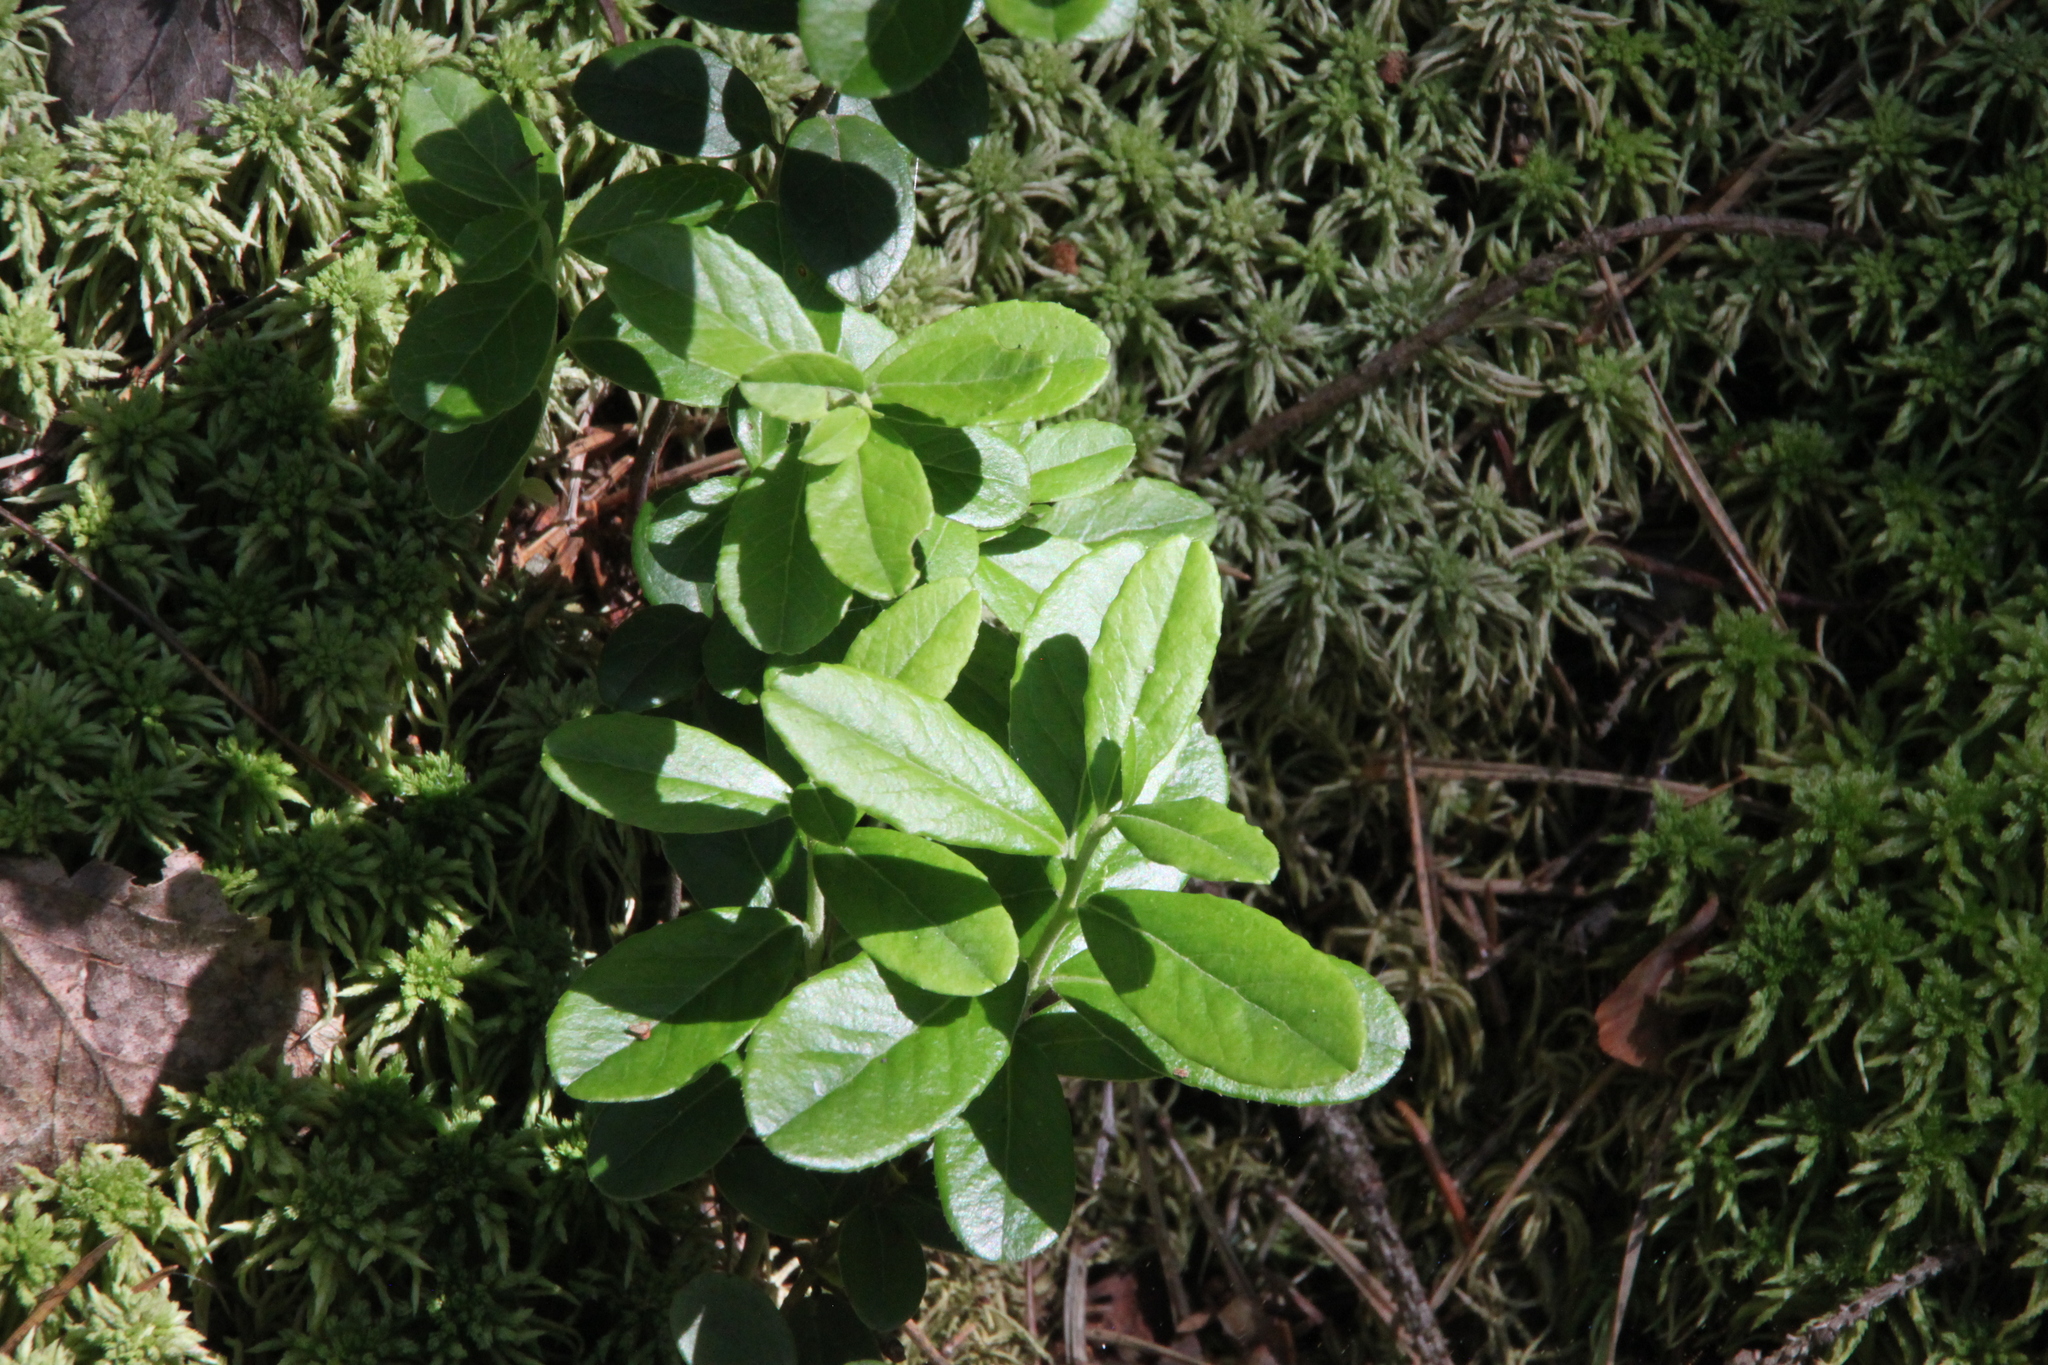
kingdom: Plantae
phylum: Tracheophyta
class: Magnoliopsida
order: Ericales
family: Ericaceae
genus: Vaccinium
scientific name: Vaccinium vitis-idaea
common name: Cowberry
